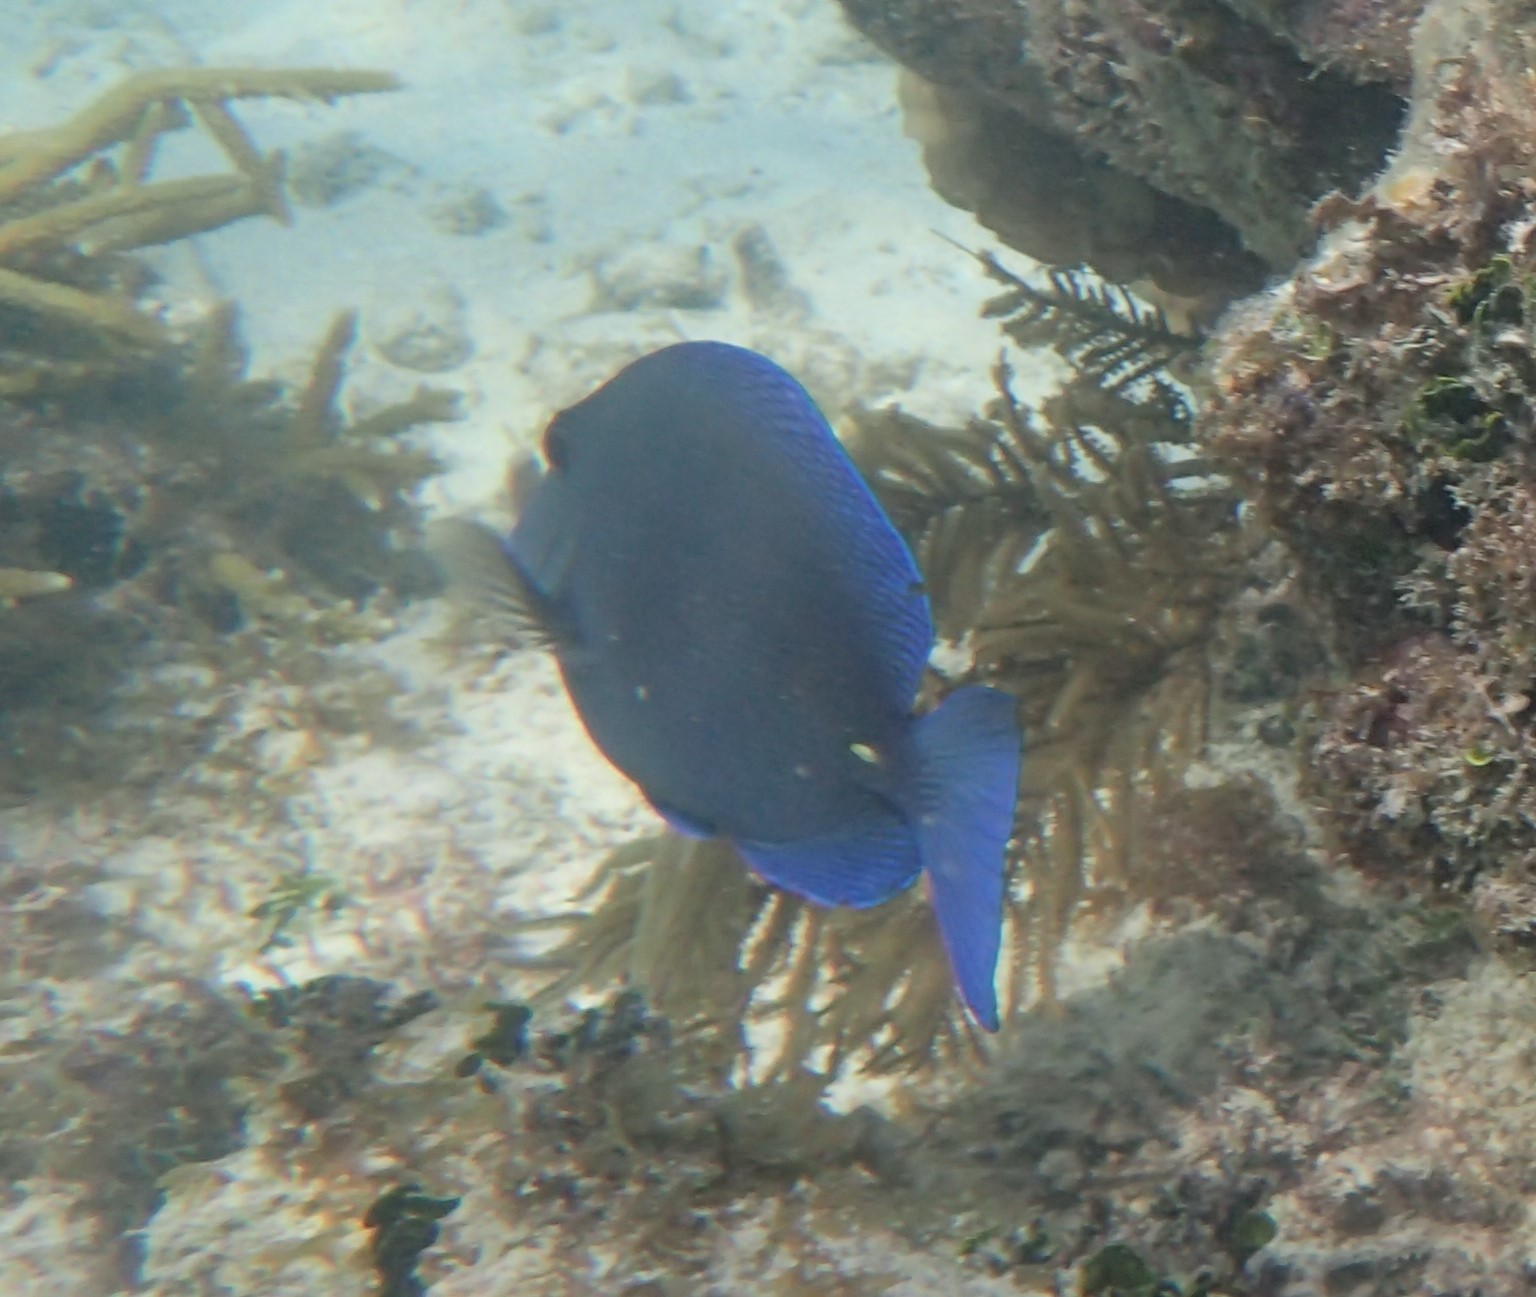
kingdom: Animalia
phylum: Chordata
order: Perciformes
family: Acanthuridae
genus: Acanthurus
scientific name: Acanthurus coeruleus
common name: Blue tang
